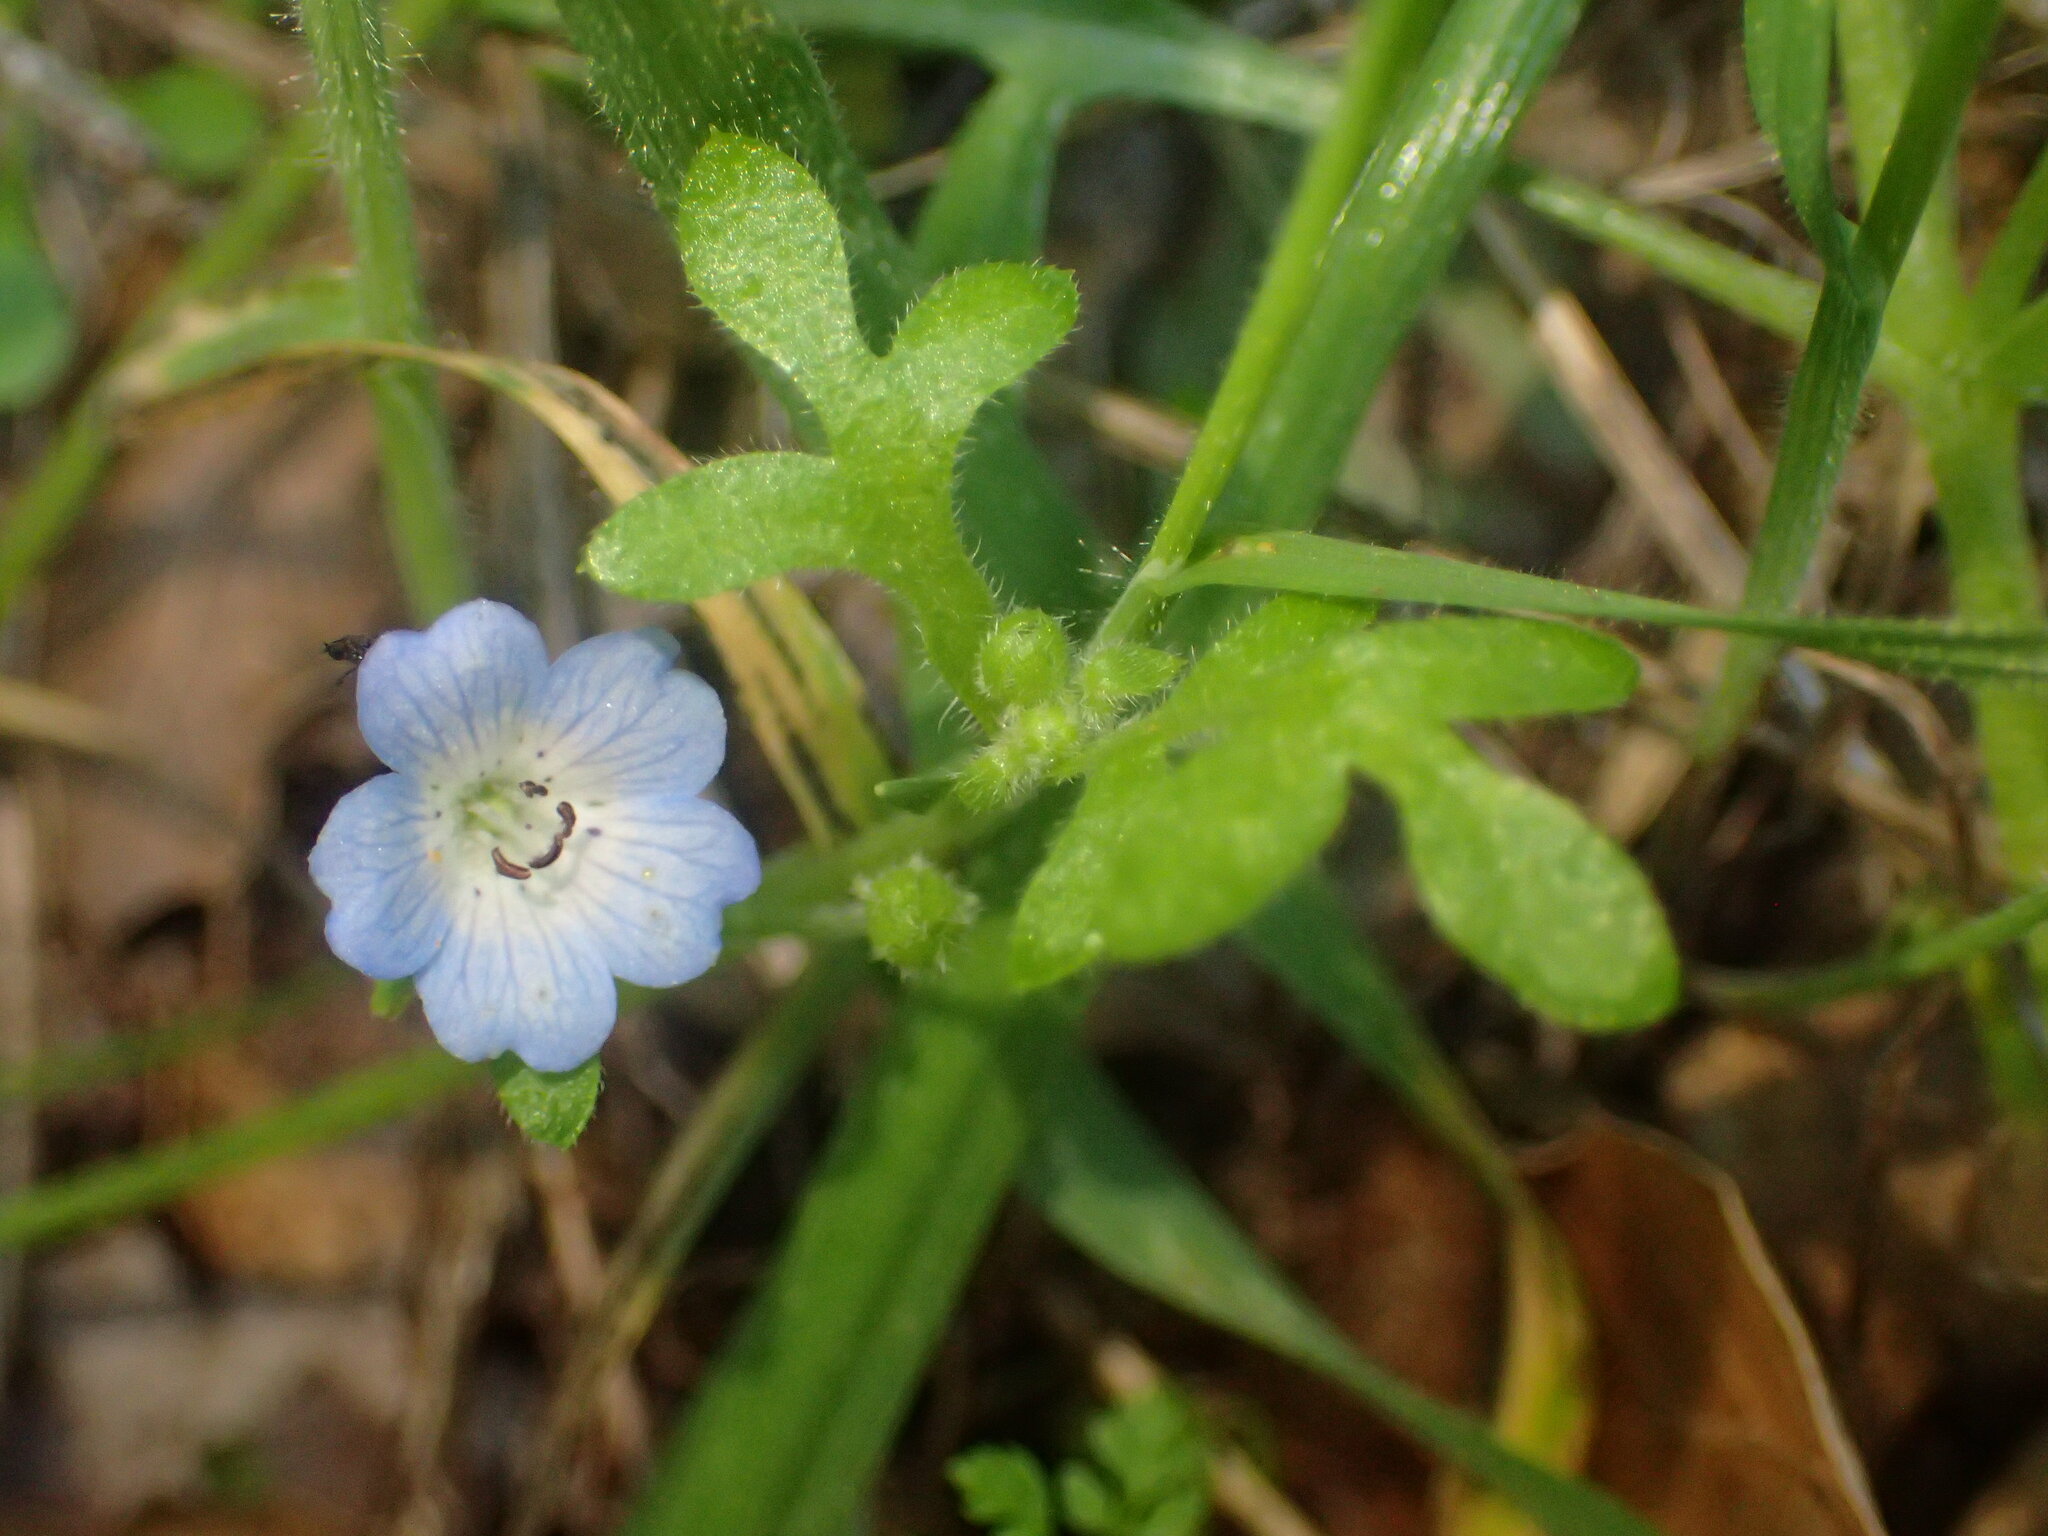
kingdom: Plantae
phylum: Tracheophyta
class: Magnoliopsida
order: Boraginales
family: Hydrophyllaceae
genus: Nemophila
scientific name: Nemophila menziesii
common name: Baby's-blue-eyes
